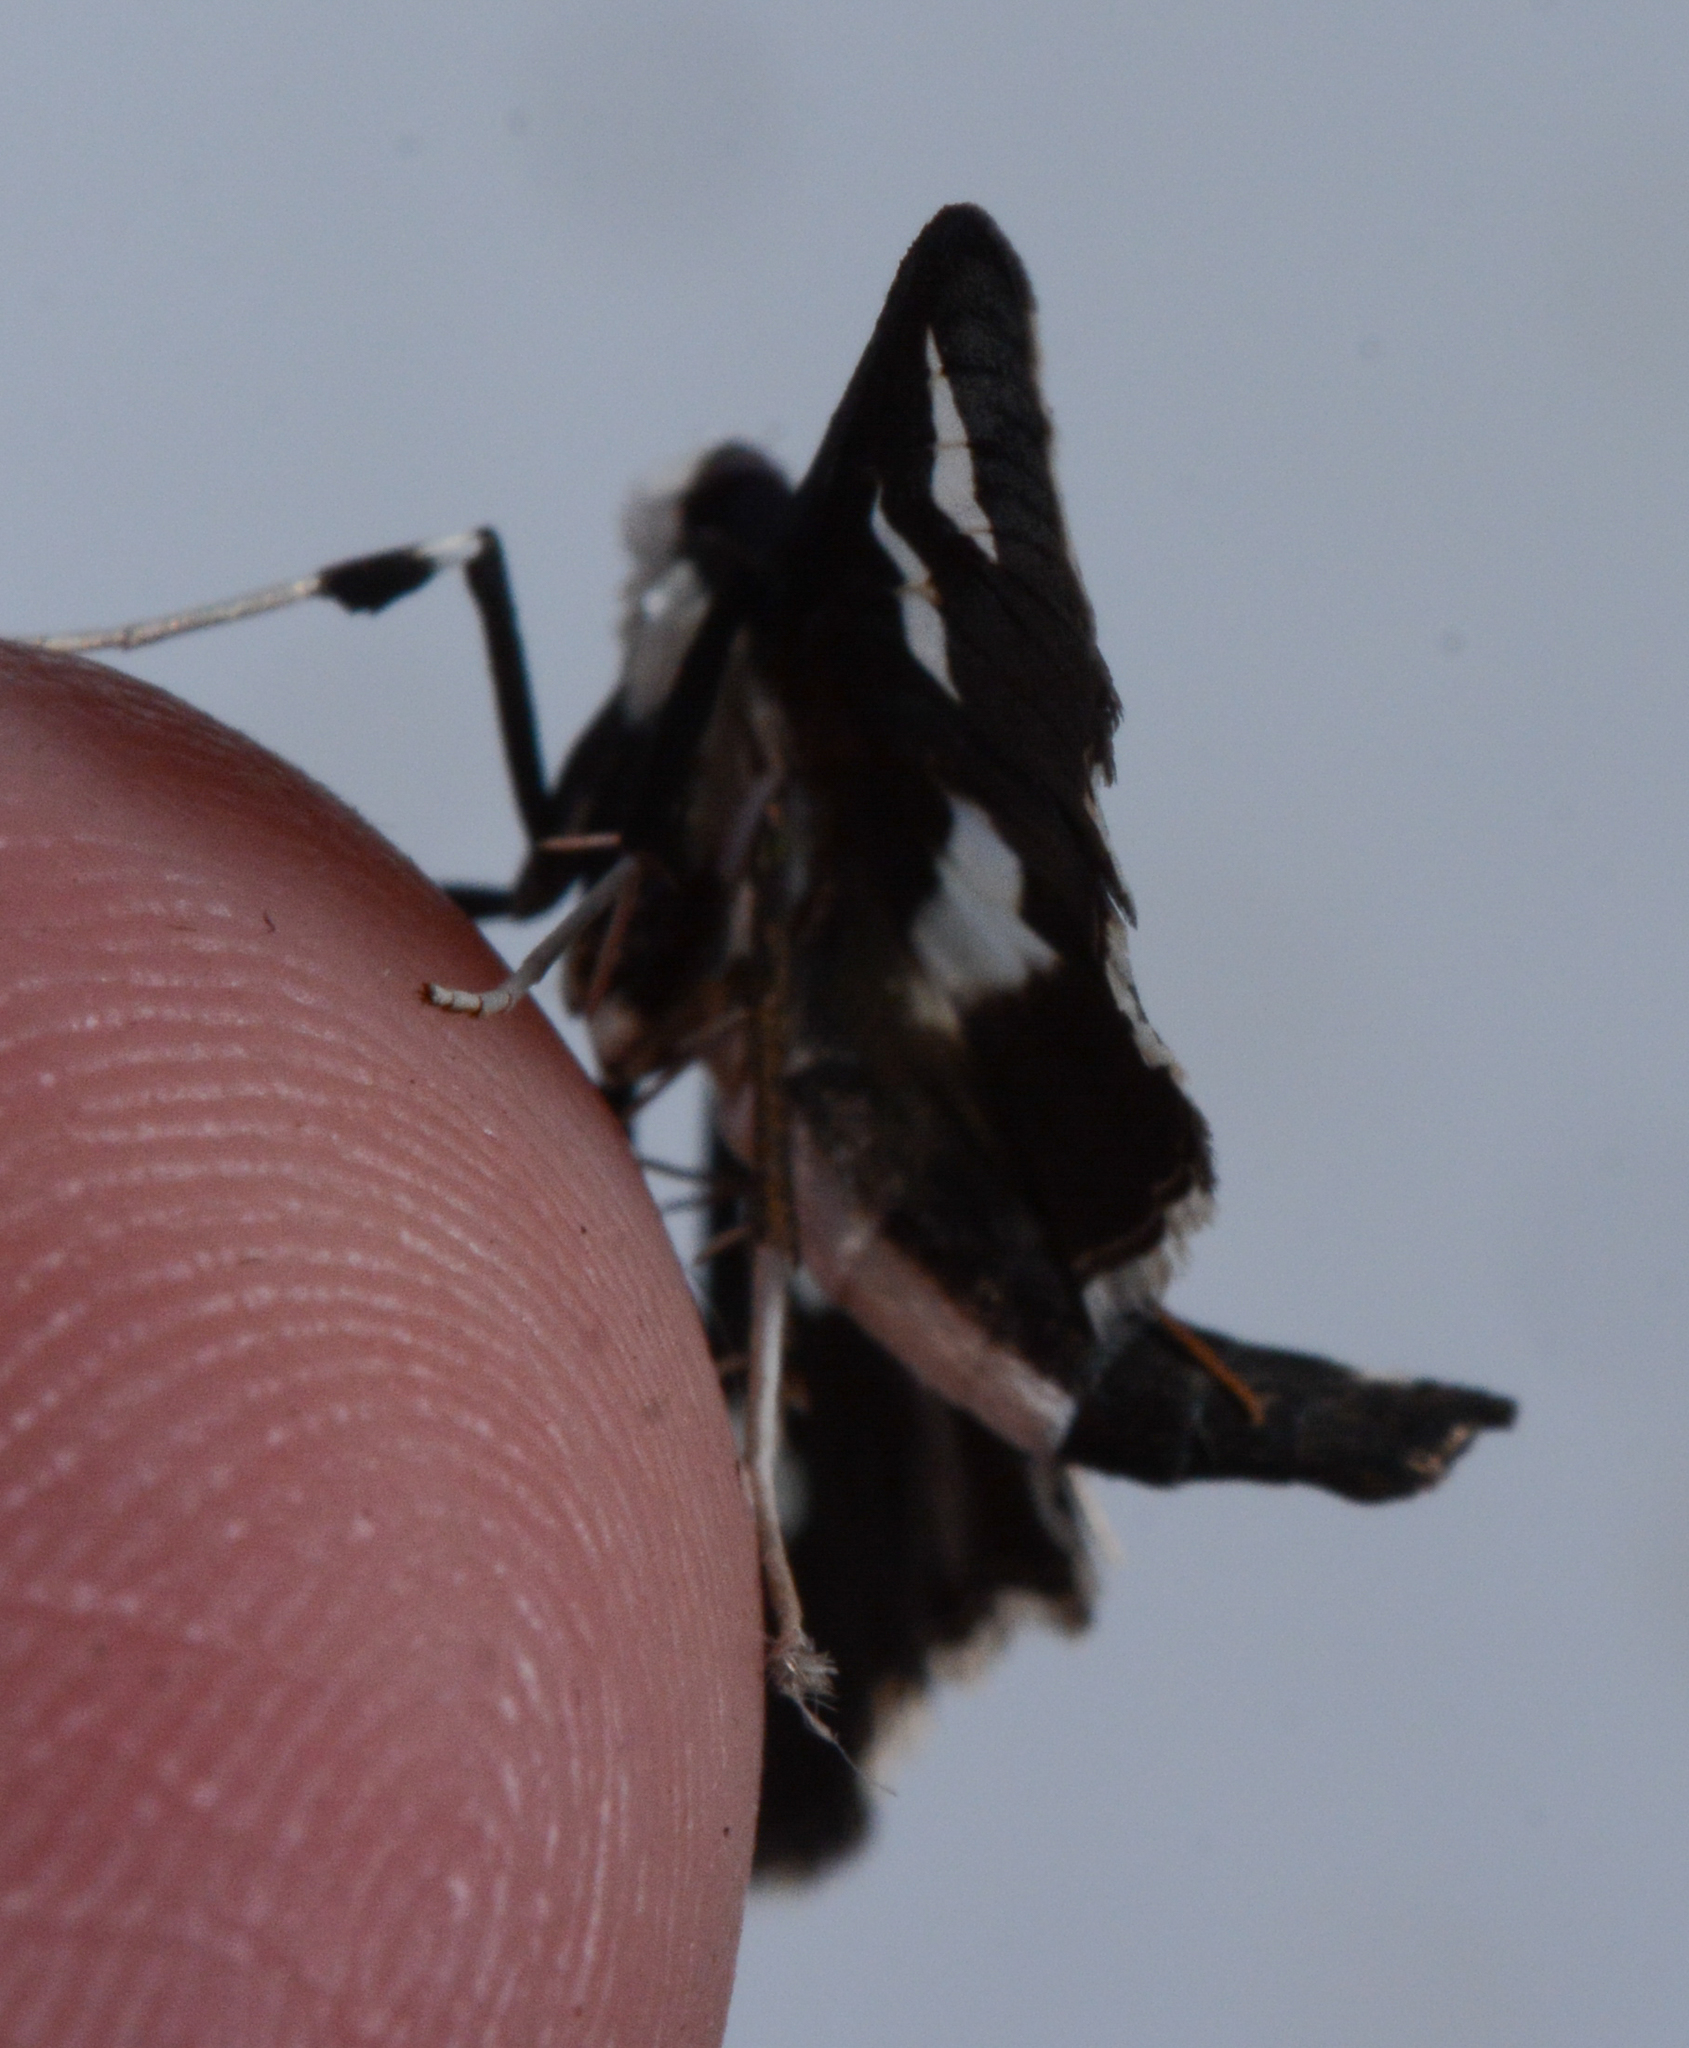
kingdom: Animalia
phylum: Arthropoda
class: Insecta
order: Lepidoptera
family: Crambidae
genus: Desmia
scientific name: Desmia funeralis
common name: Grape leaf folder moth
